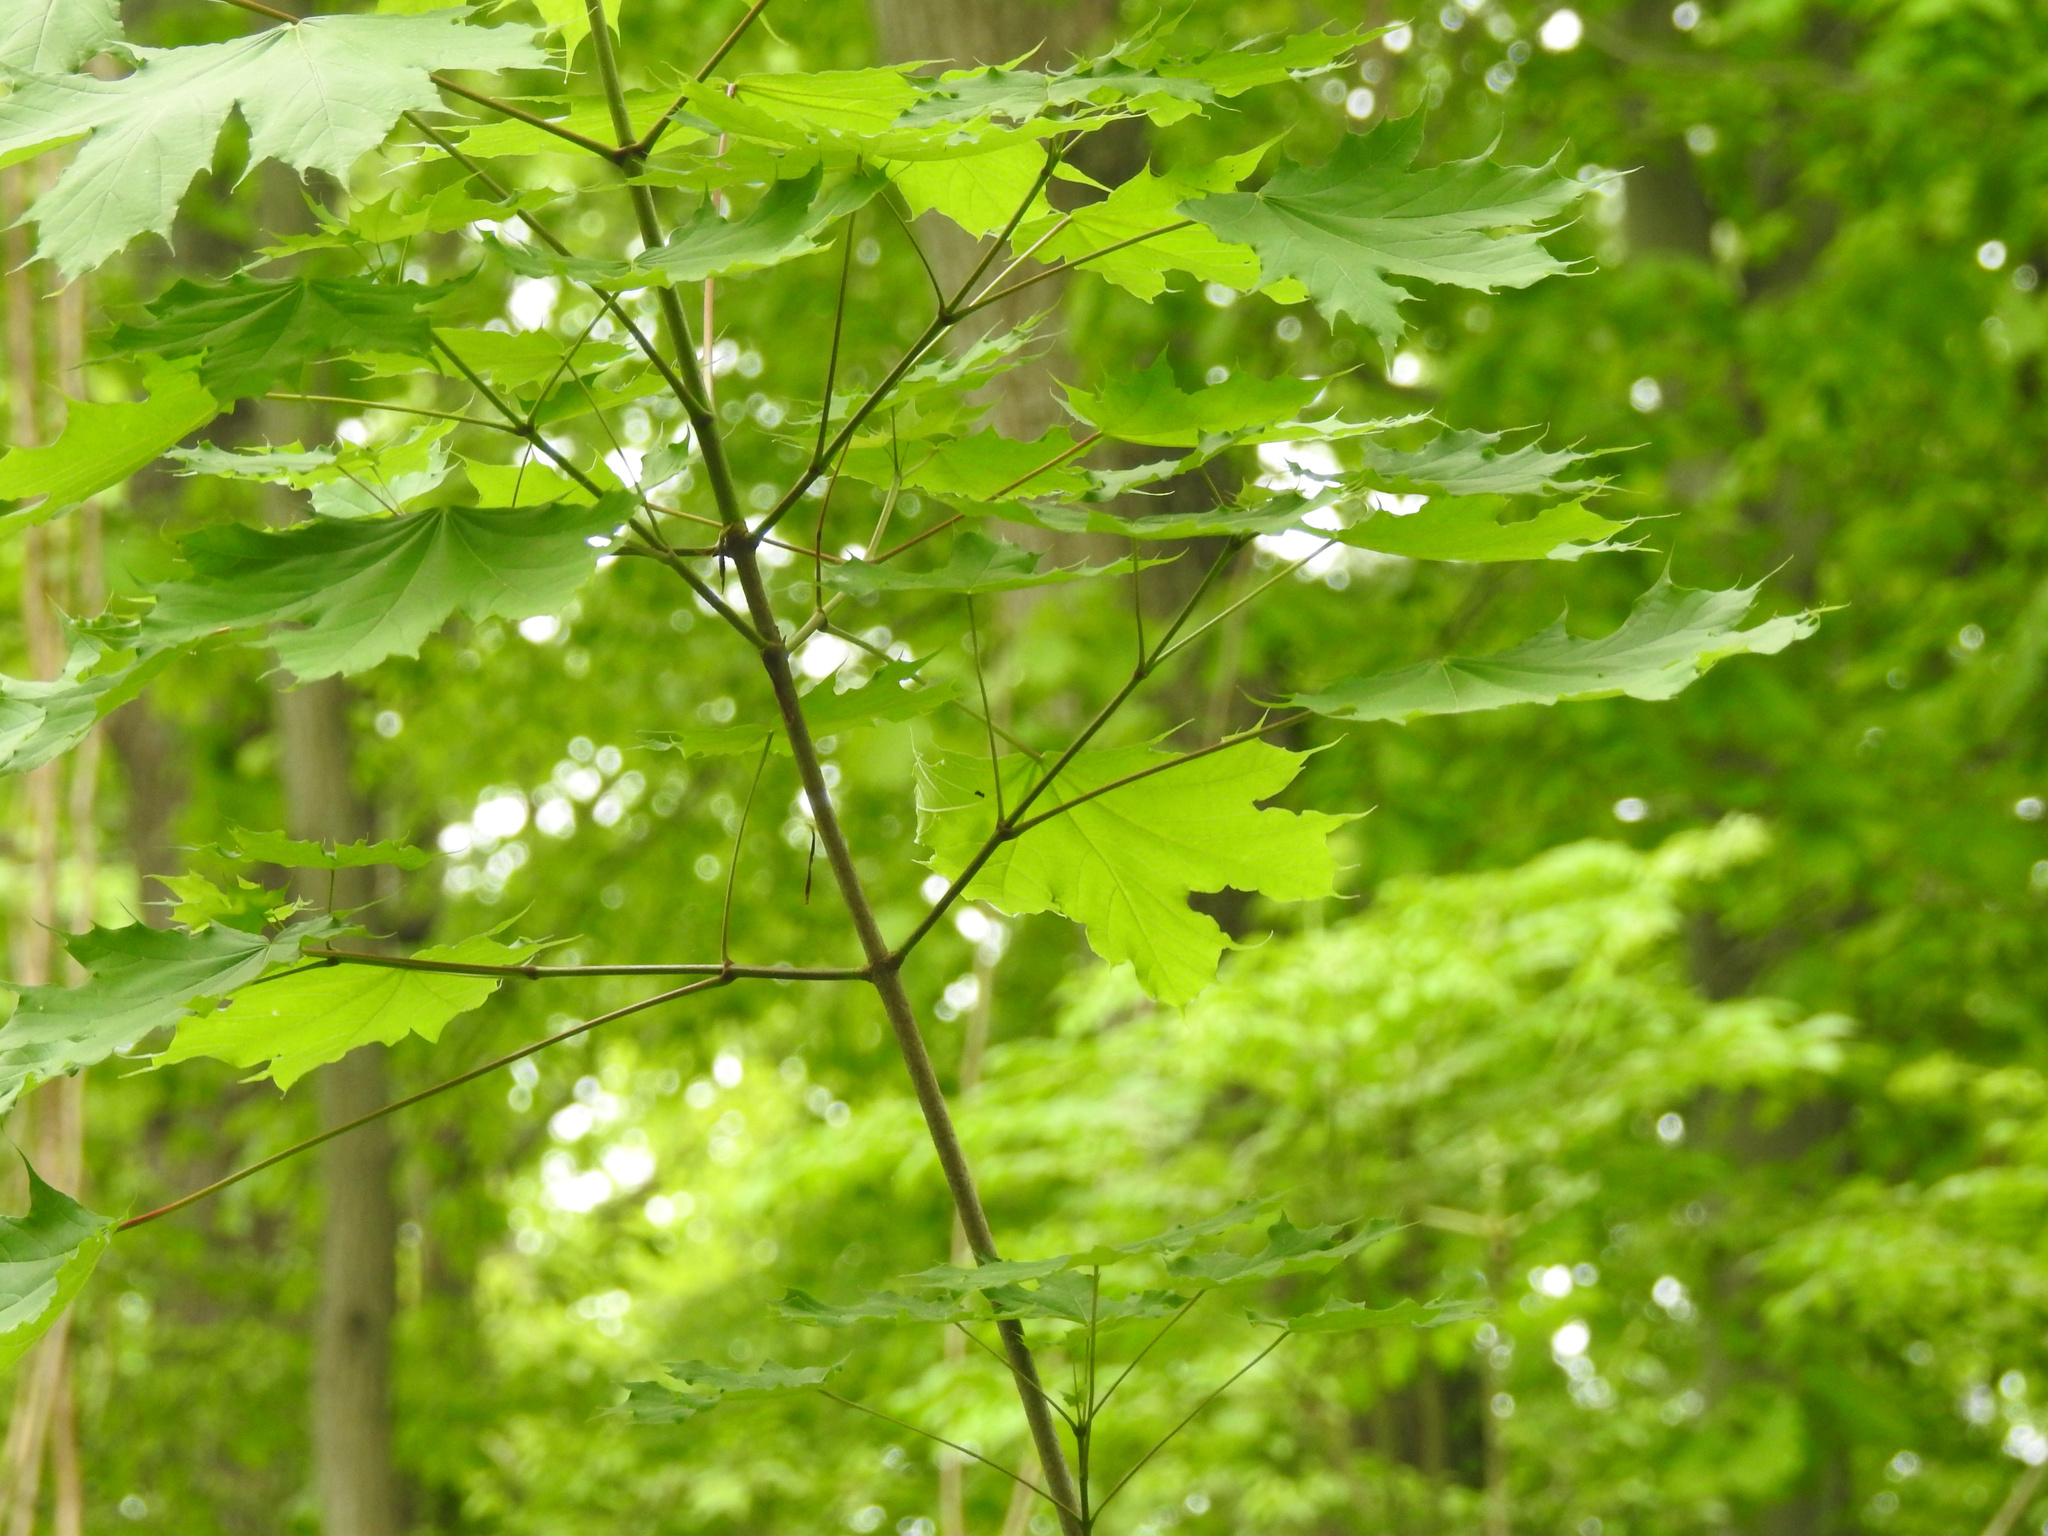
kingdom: Plantae
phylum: Tracheophyta
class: Magnoliopsida
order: Sapindales
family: Sapindaceae
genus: Acer
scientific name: Acer platanoides
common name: Norway maple
